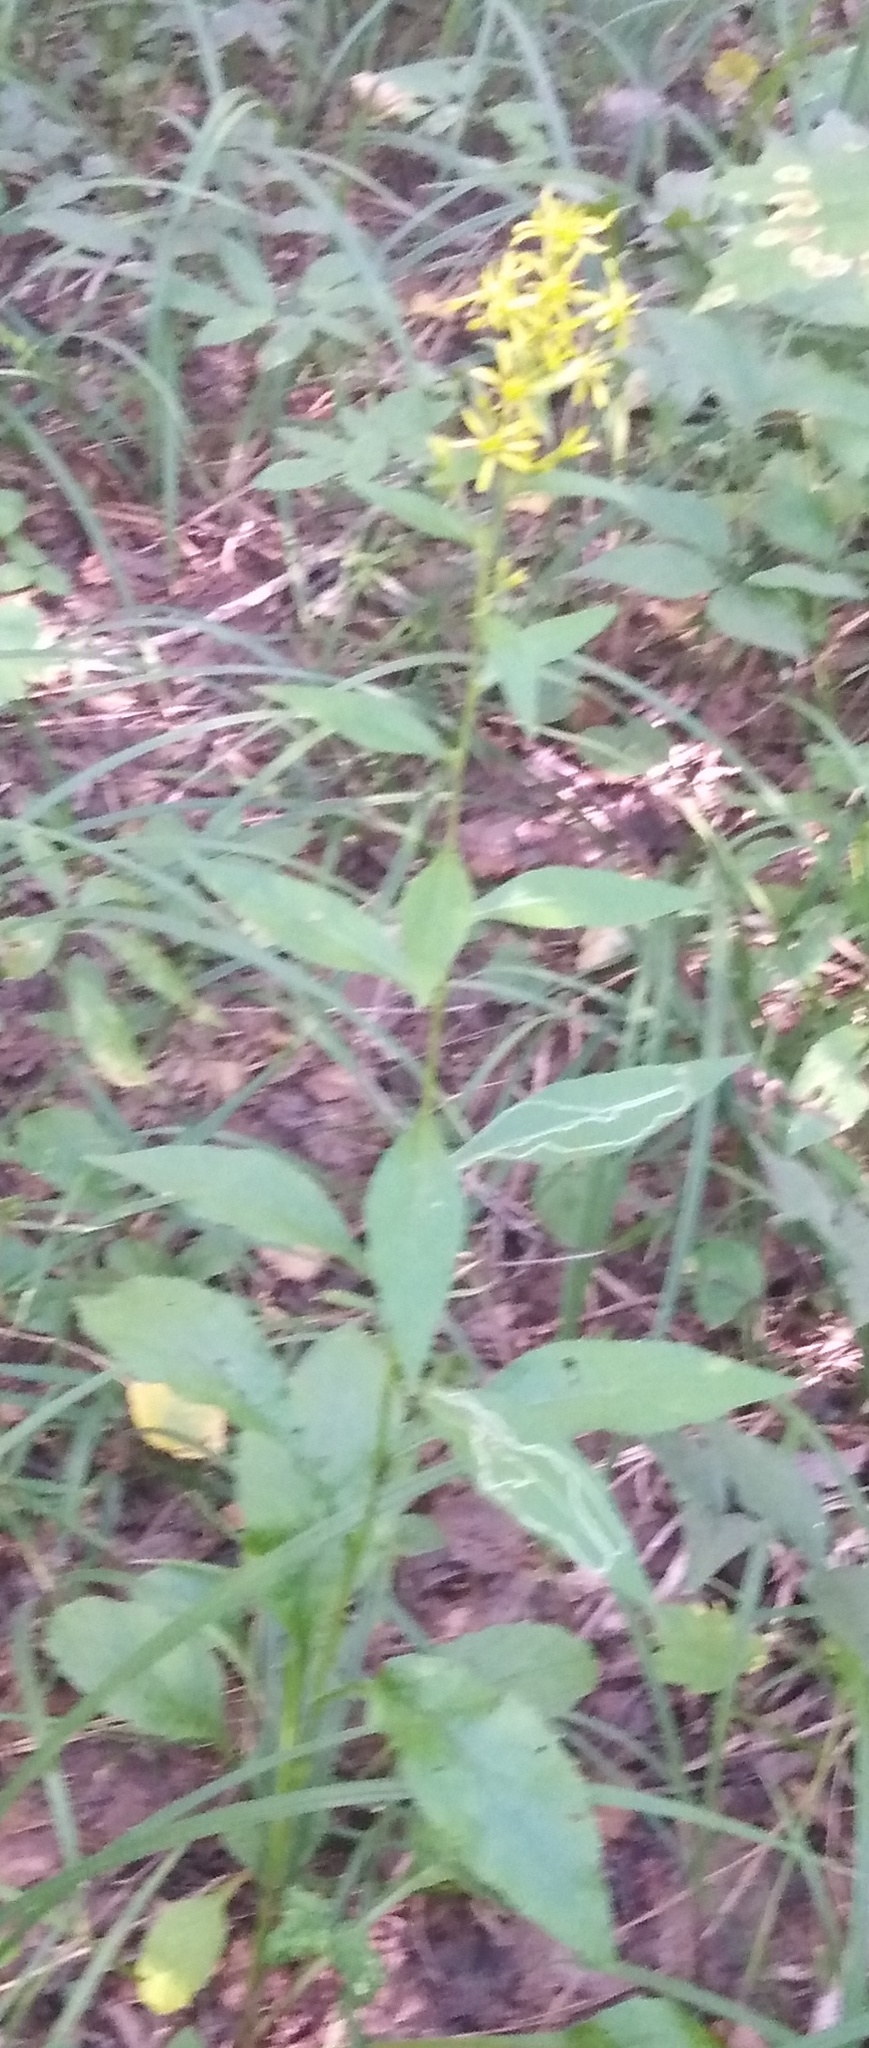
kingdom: Plantae
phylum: Tracheophyta
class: Magnoliopsida
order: Asterales
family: Asteraceae
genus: Solidago
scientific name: Solidago virgaurea
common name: Goldenrod
